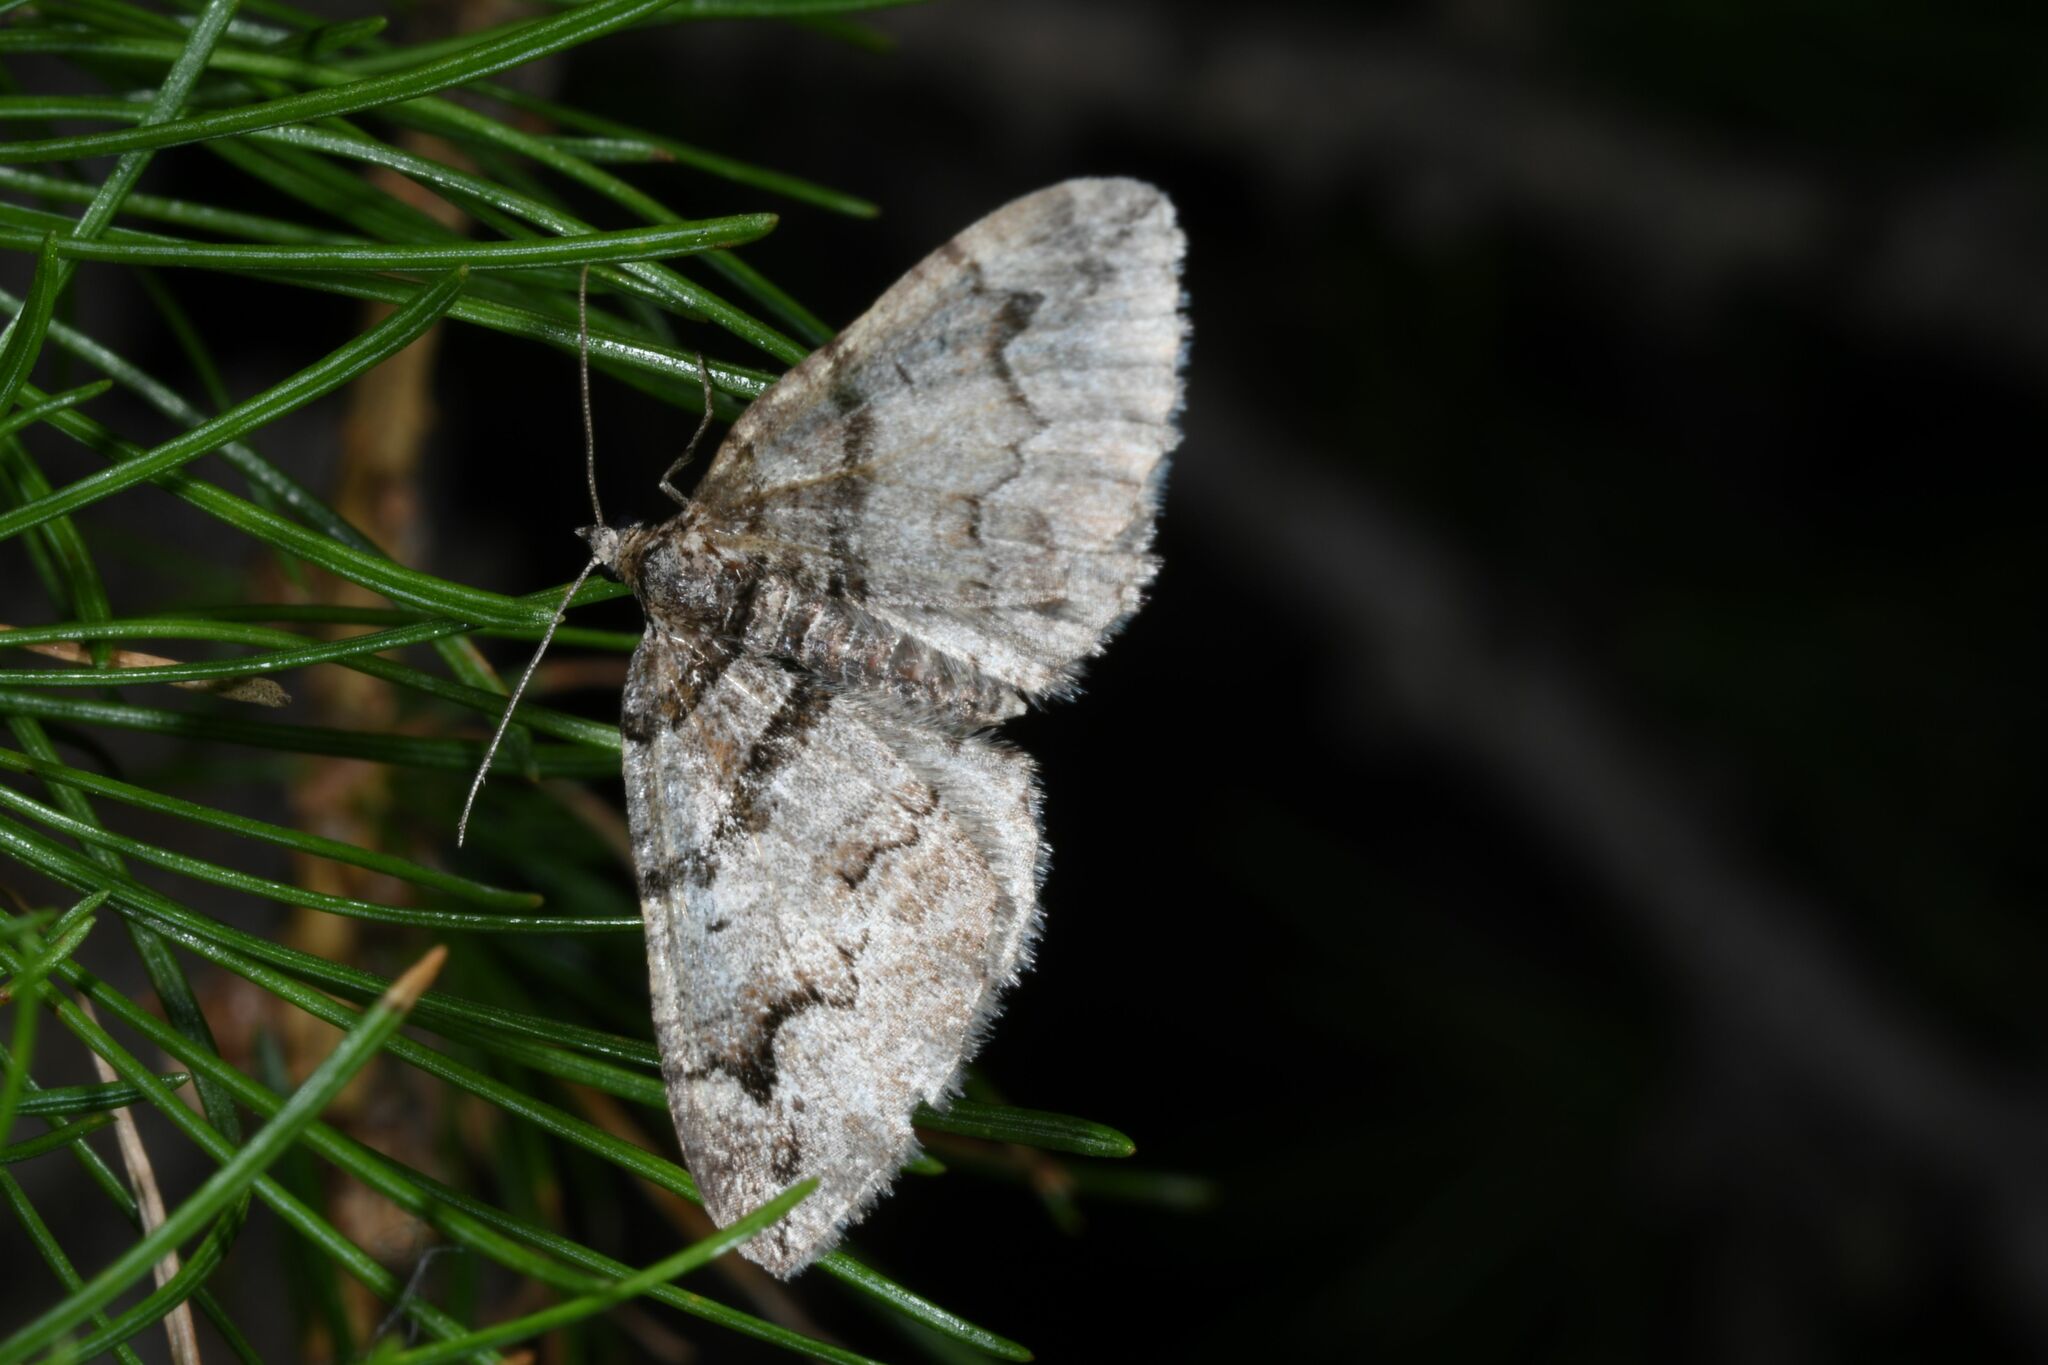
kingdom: Animalia
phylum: Arthropoda
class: Insecta
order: Lepidoptera
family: Geometridae
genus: Pareulype
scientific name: Pareulype berberata
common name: Barberry carpet
